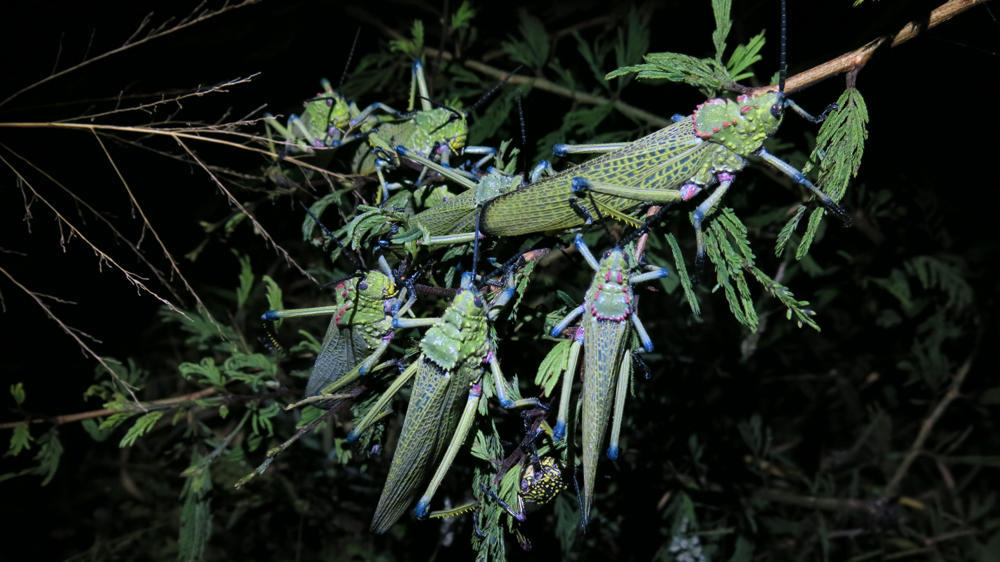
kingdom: Animalia
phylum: Arthropoda
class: Insecta
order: Orthoptera
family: Pyrgomorphidae
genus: Phymateus
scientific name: Phymateus viridipes
